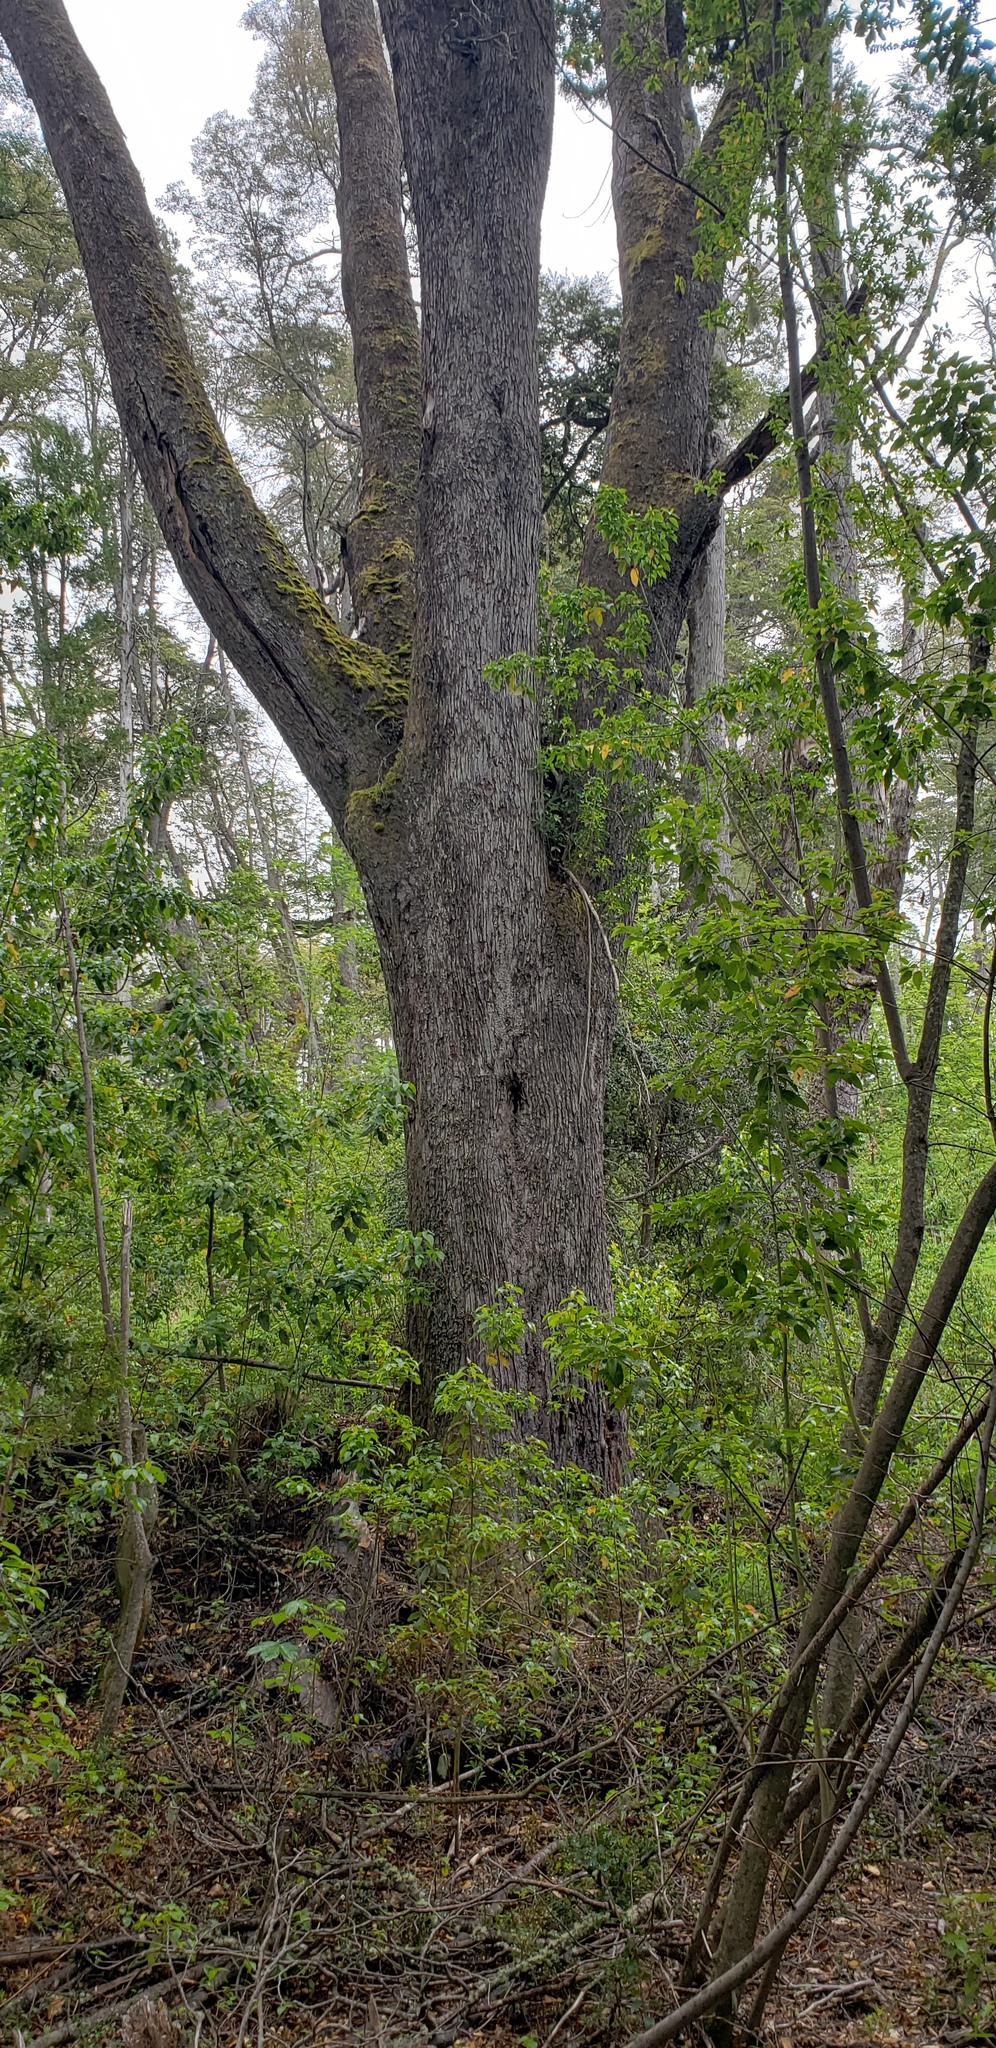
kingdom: Plantae
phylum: Tracheophyta
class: Magnoliopsida
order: Fagales
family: Nothofagaceae
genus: Nothofagus
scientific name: Nothofagus dombeyi
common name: Coigue
